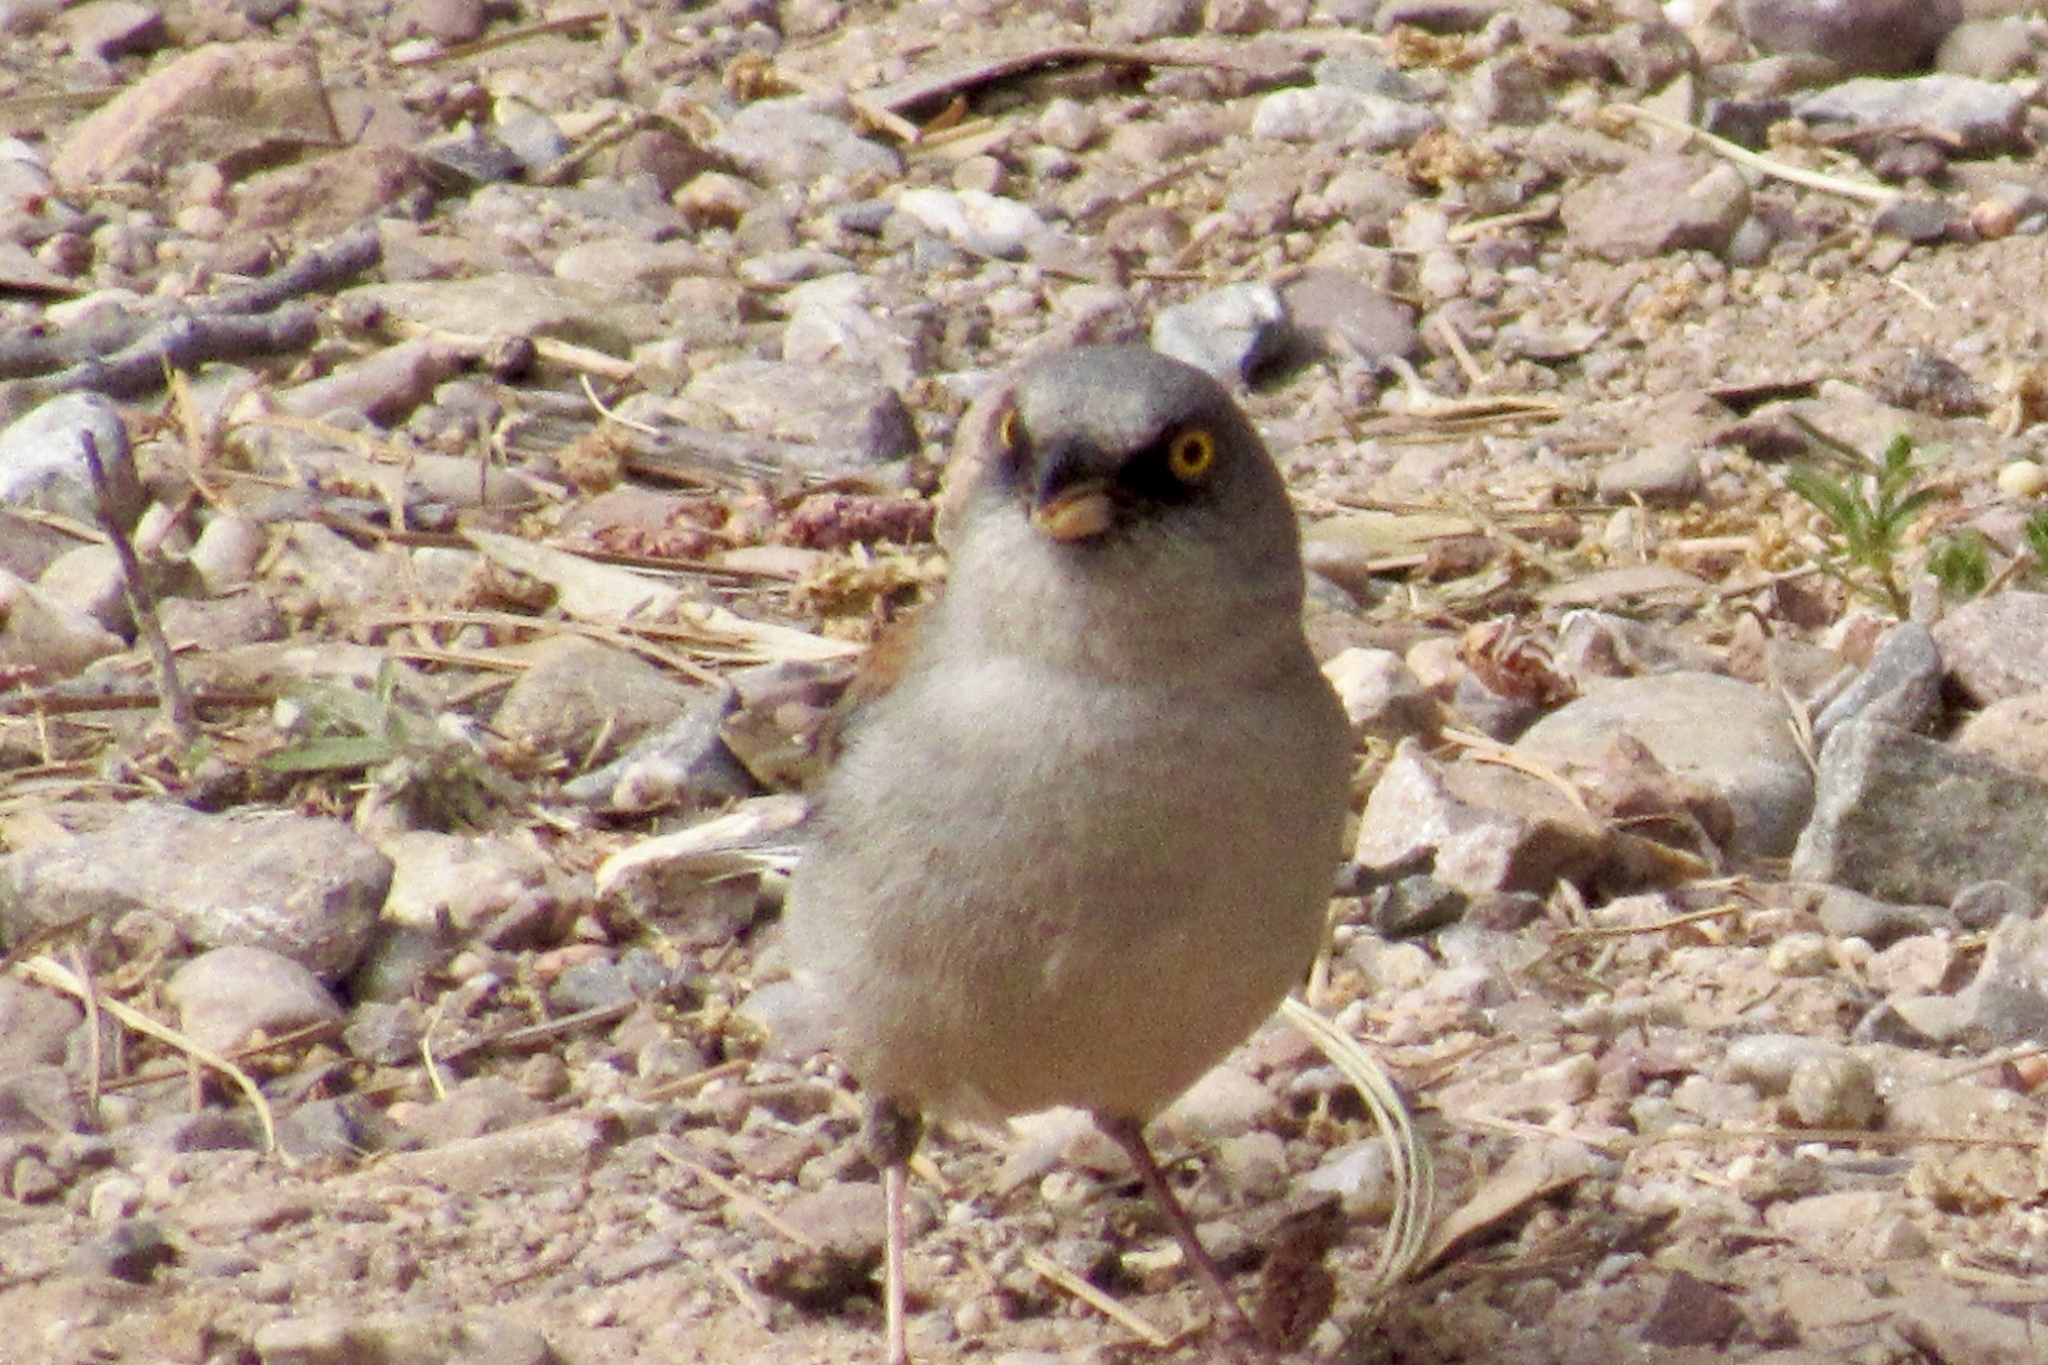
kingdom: Animalia
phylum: Chordata
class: Aves
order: Passeriformes
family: Passerellidae
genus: Junco
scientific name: Junco phaeonotus
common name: Yellow-eyed junco
